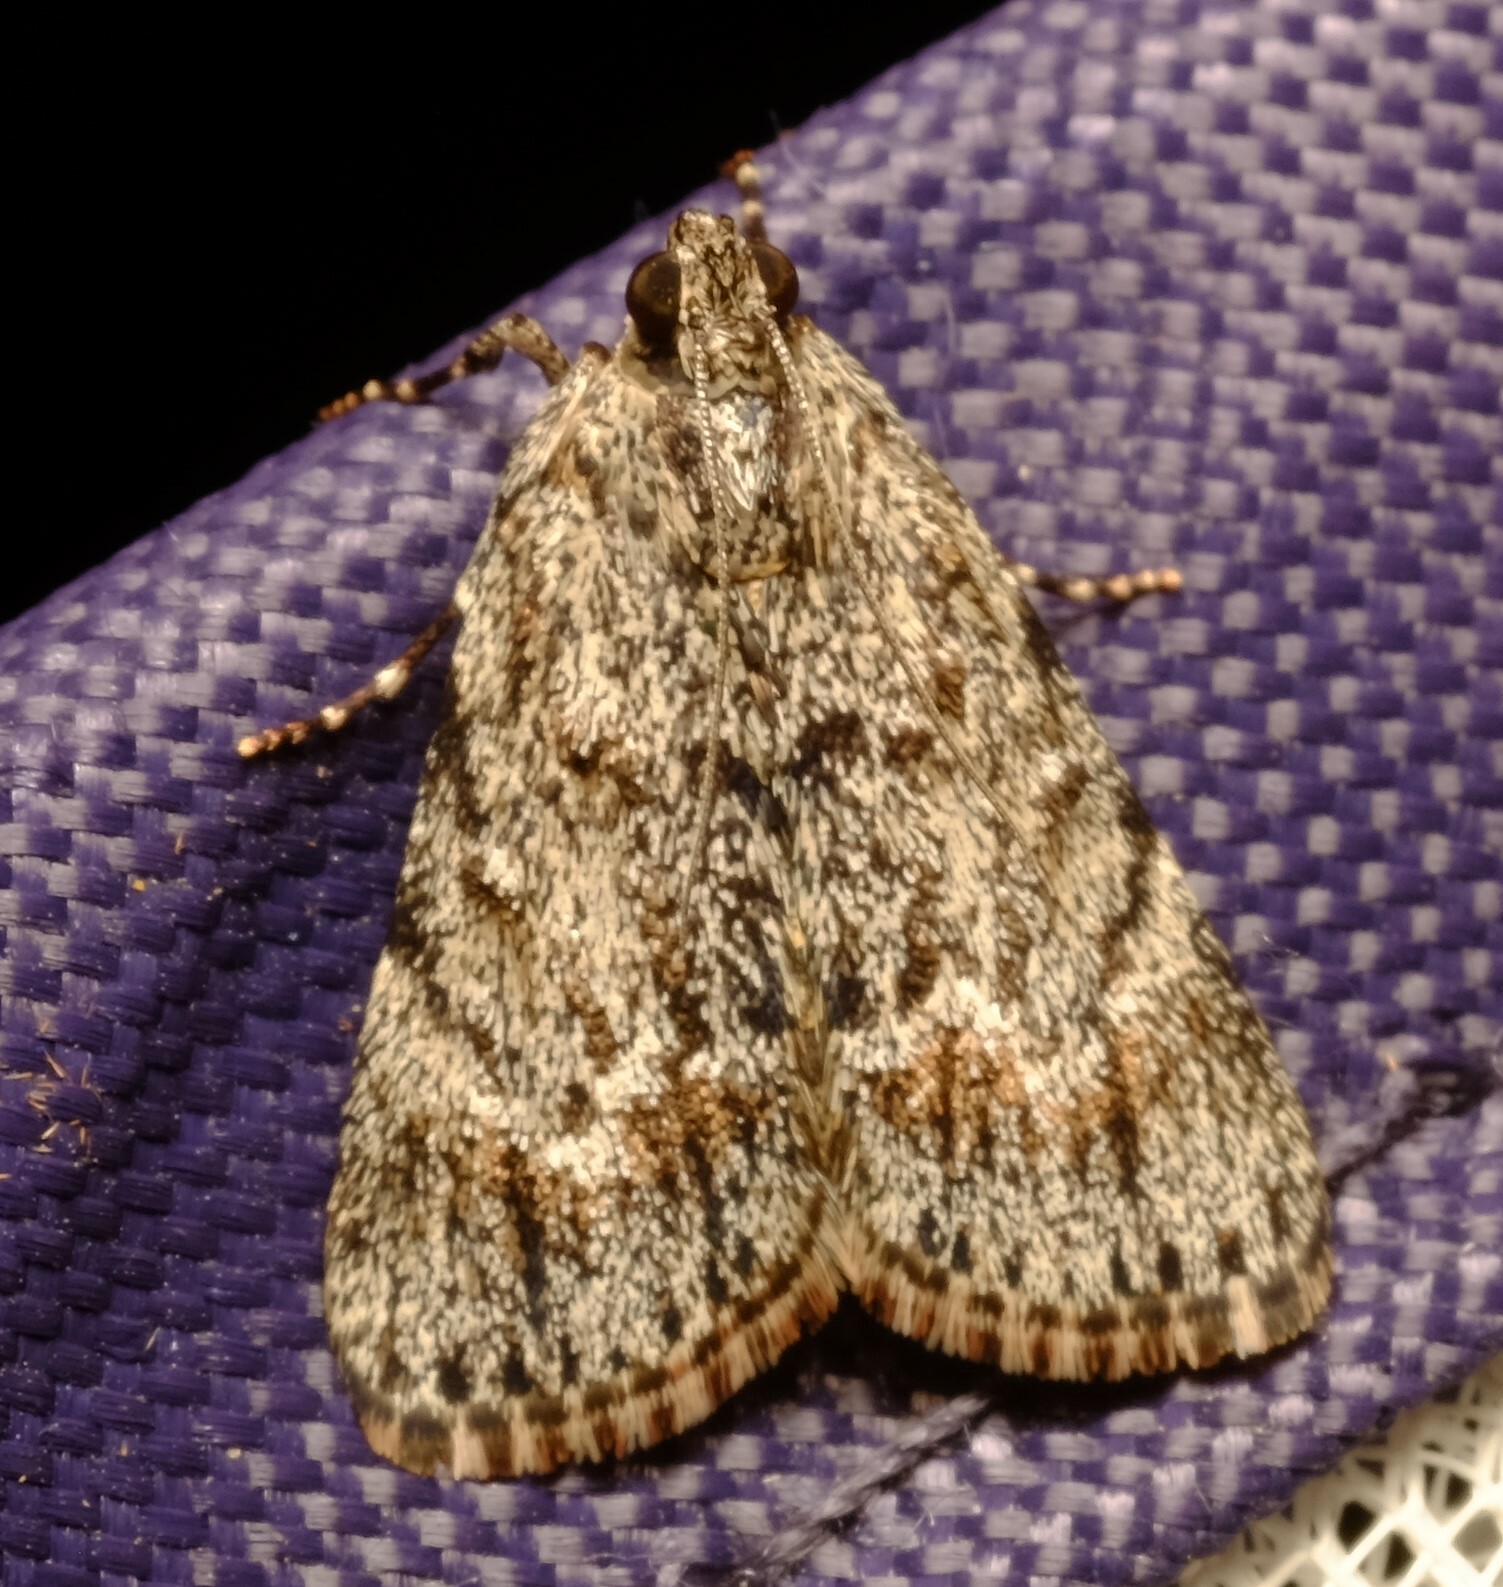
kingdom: Animalia
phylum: Arthropoda
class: Insecta
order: Lepidoptera
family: Pyralidae
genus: Spectrotrota
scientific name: Spectrotrota fimbrialis
